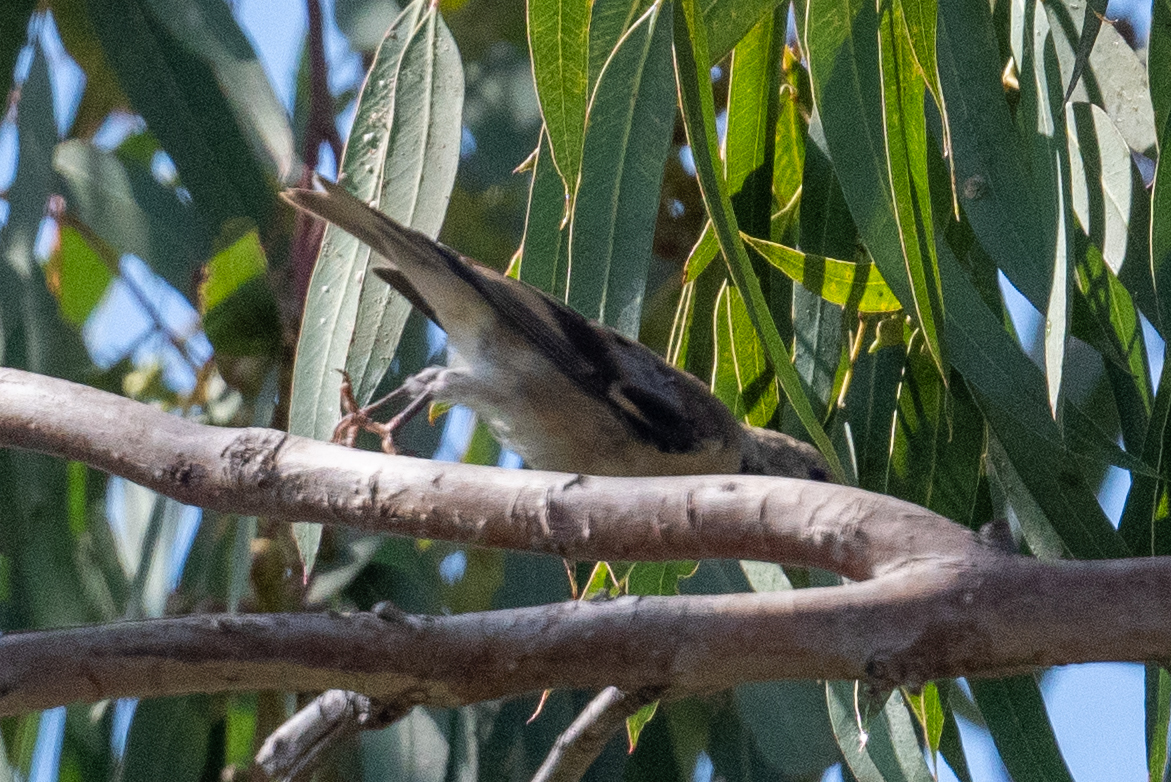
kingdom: Animalia
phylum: Chordata
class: Aves
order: Passeriformes
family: Fringillidae
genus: Spinus
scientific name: Spinus tristis
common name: American goldfinch
